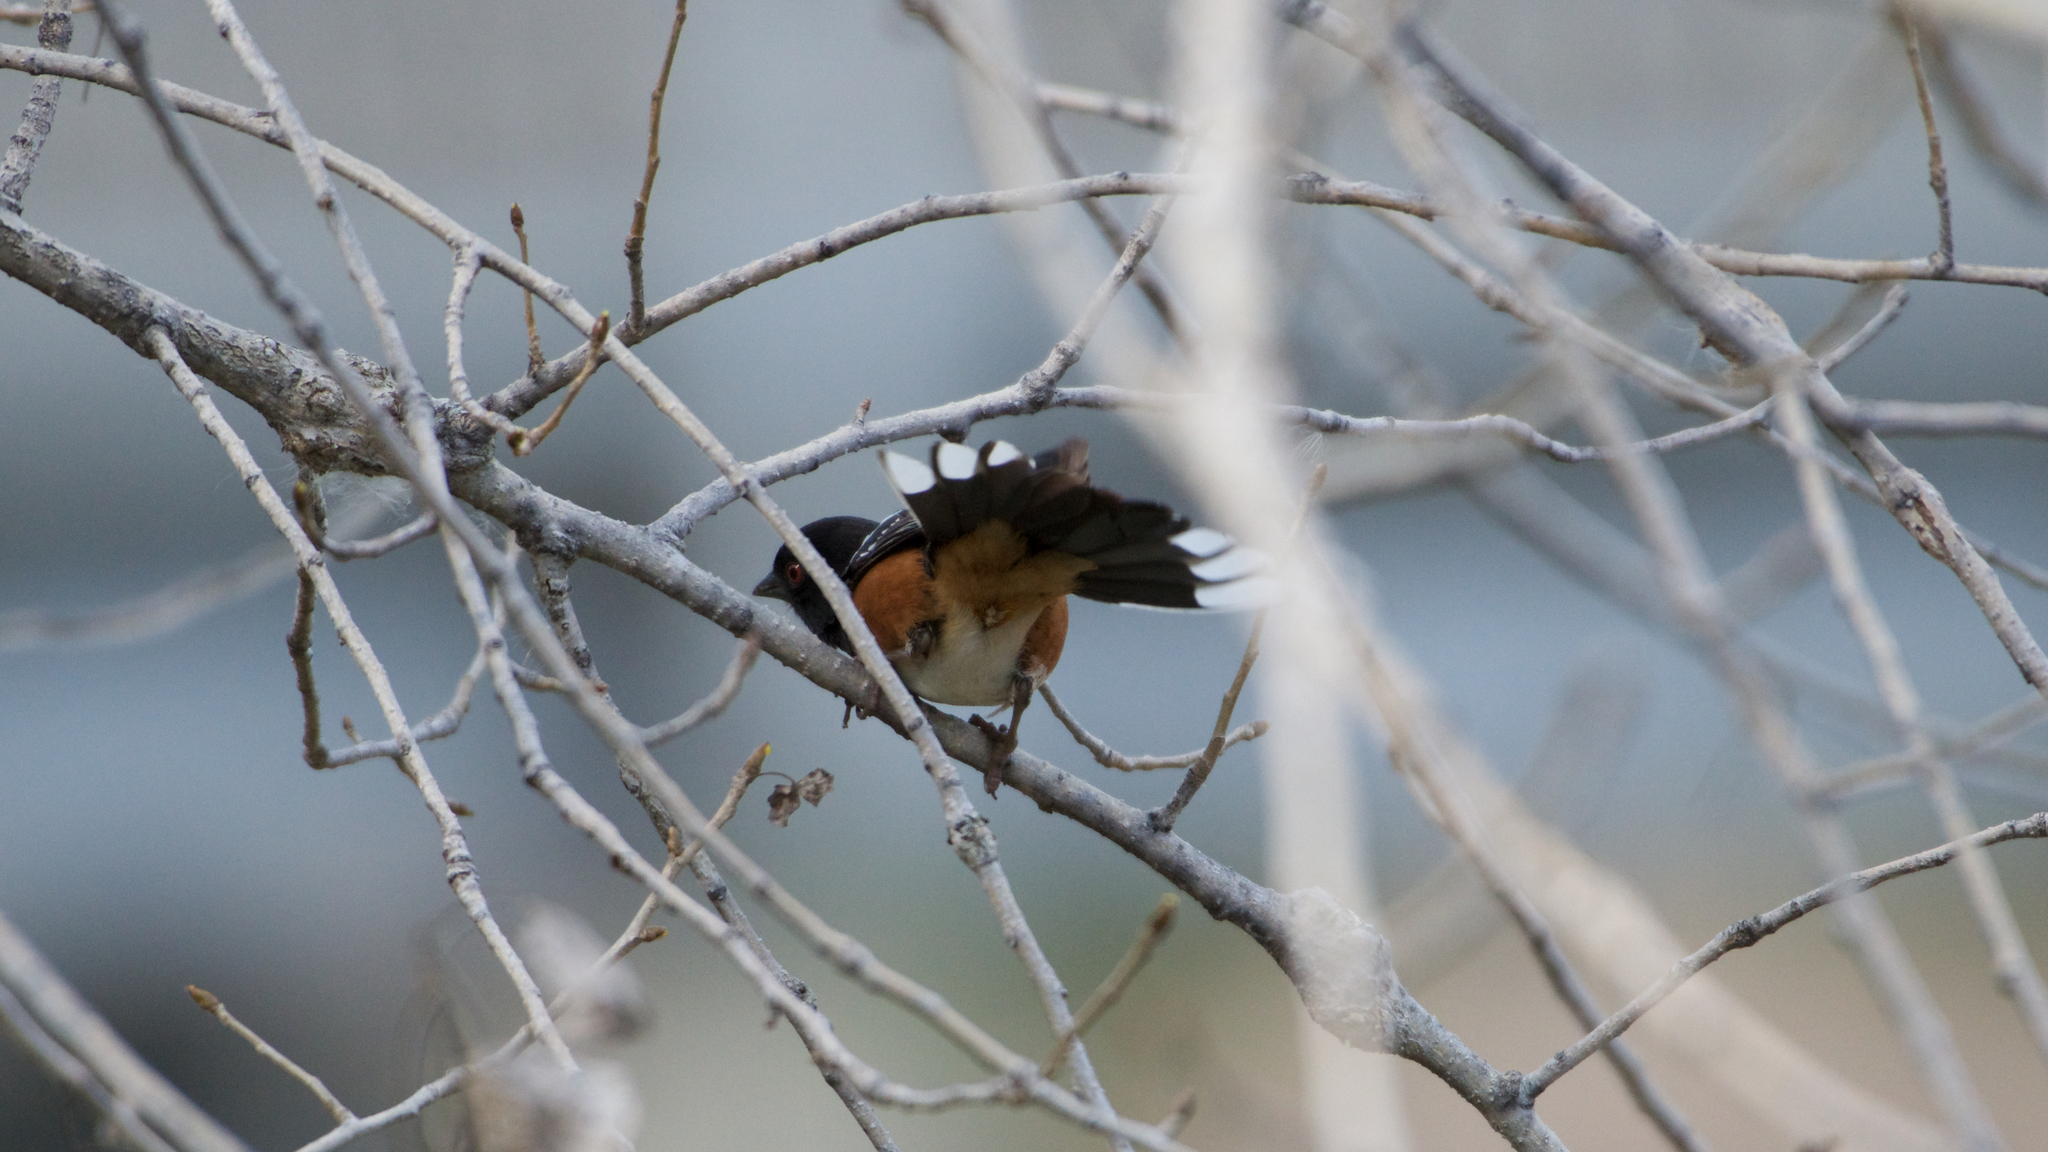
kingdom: Animalia
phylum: Chordata
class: Aves
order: Passeriformes
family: Passerellidae
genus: Pipilo
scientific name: Pipilo maculatus
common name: Spotted towhee
